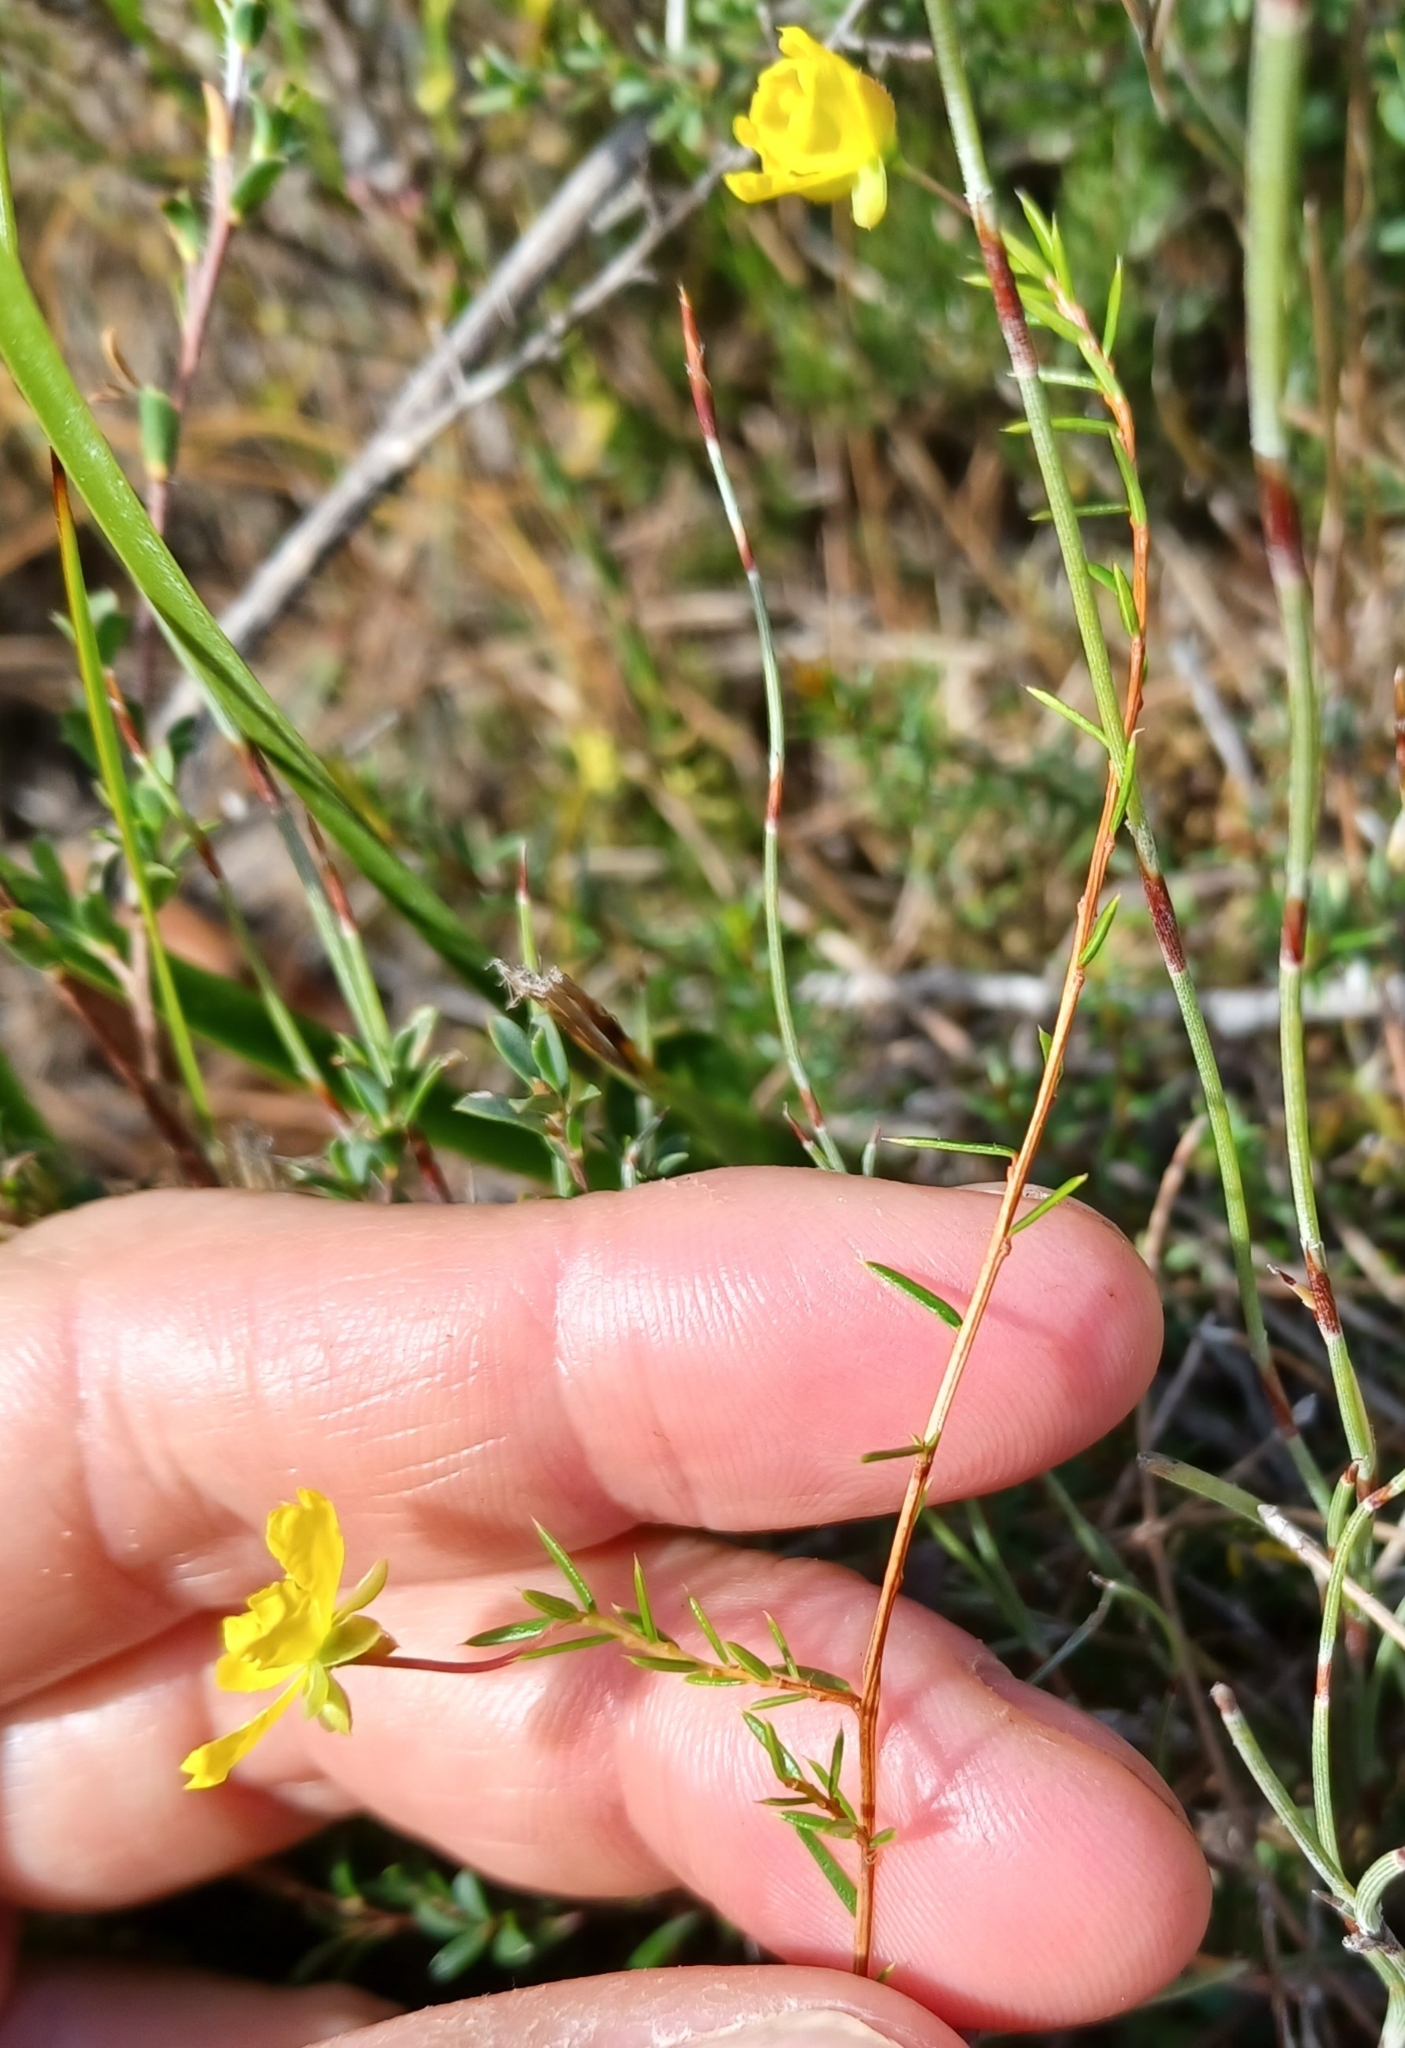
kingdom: Plantae
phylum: Tracheophyta
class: Magnoliopsida
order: Dilleniales
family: Dilleniaceae
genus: Hibbertia
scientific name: Hibbertia acicularis
